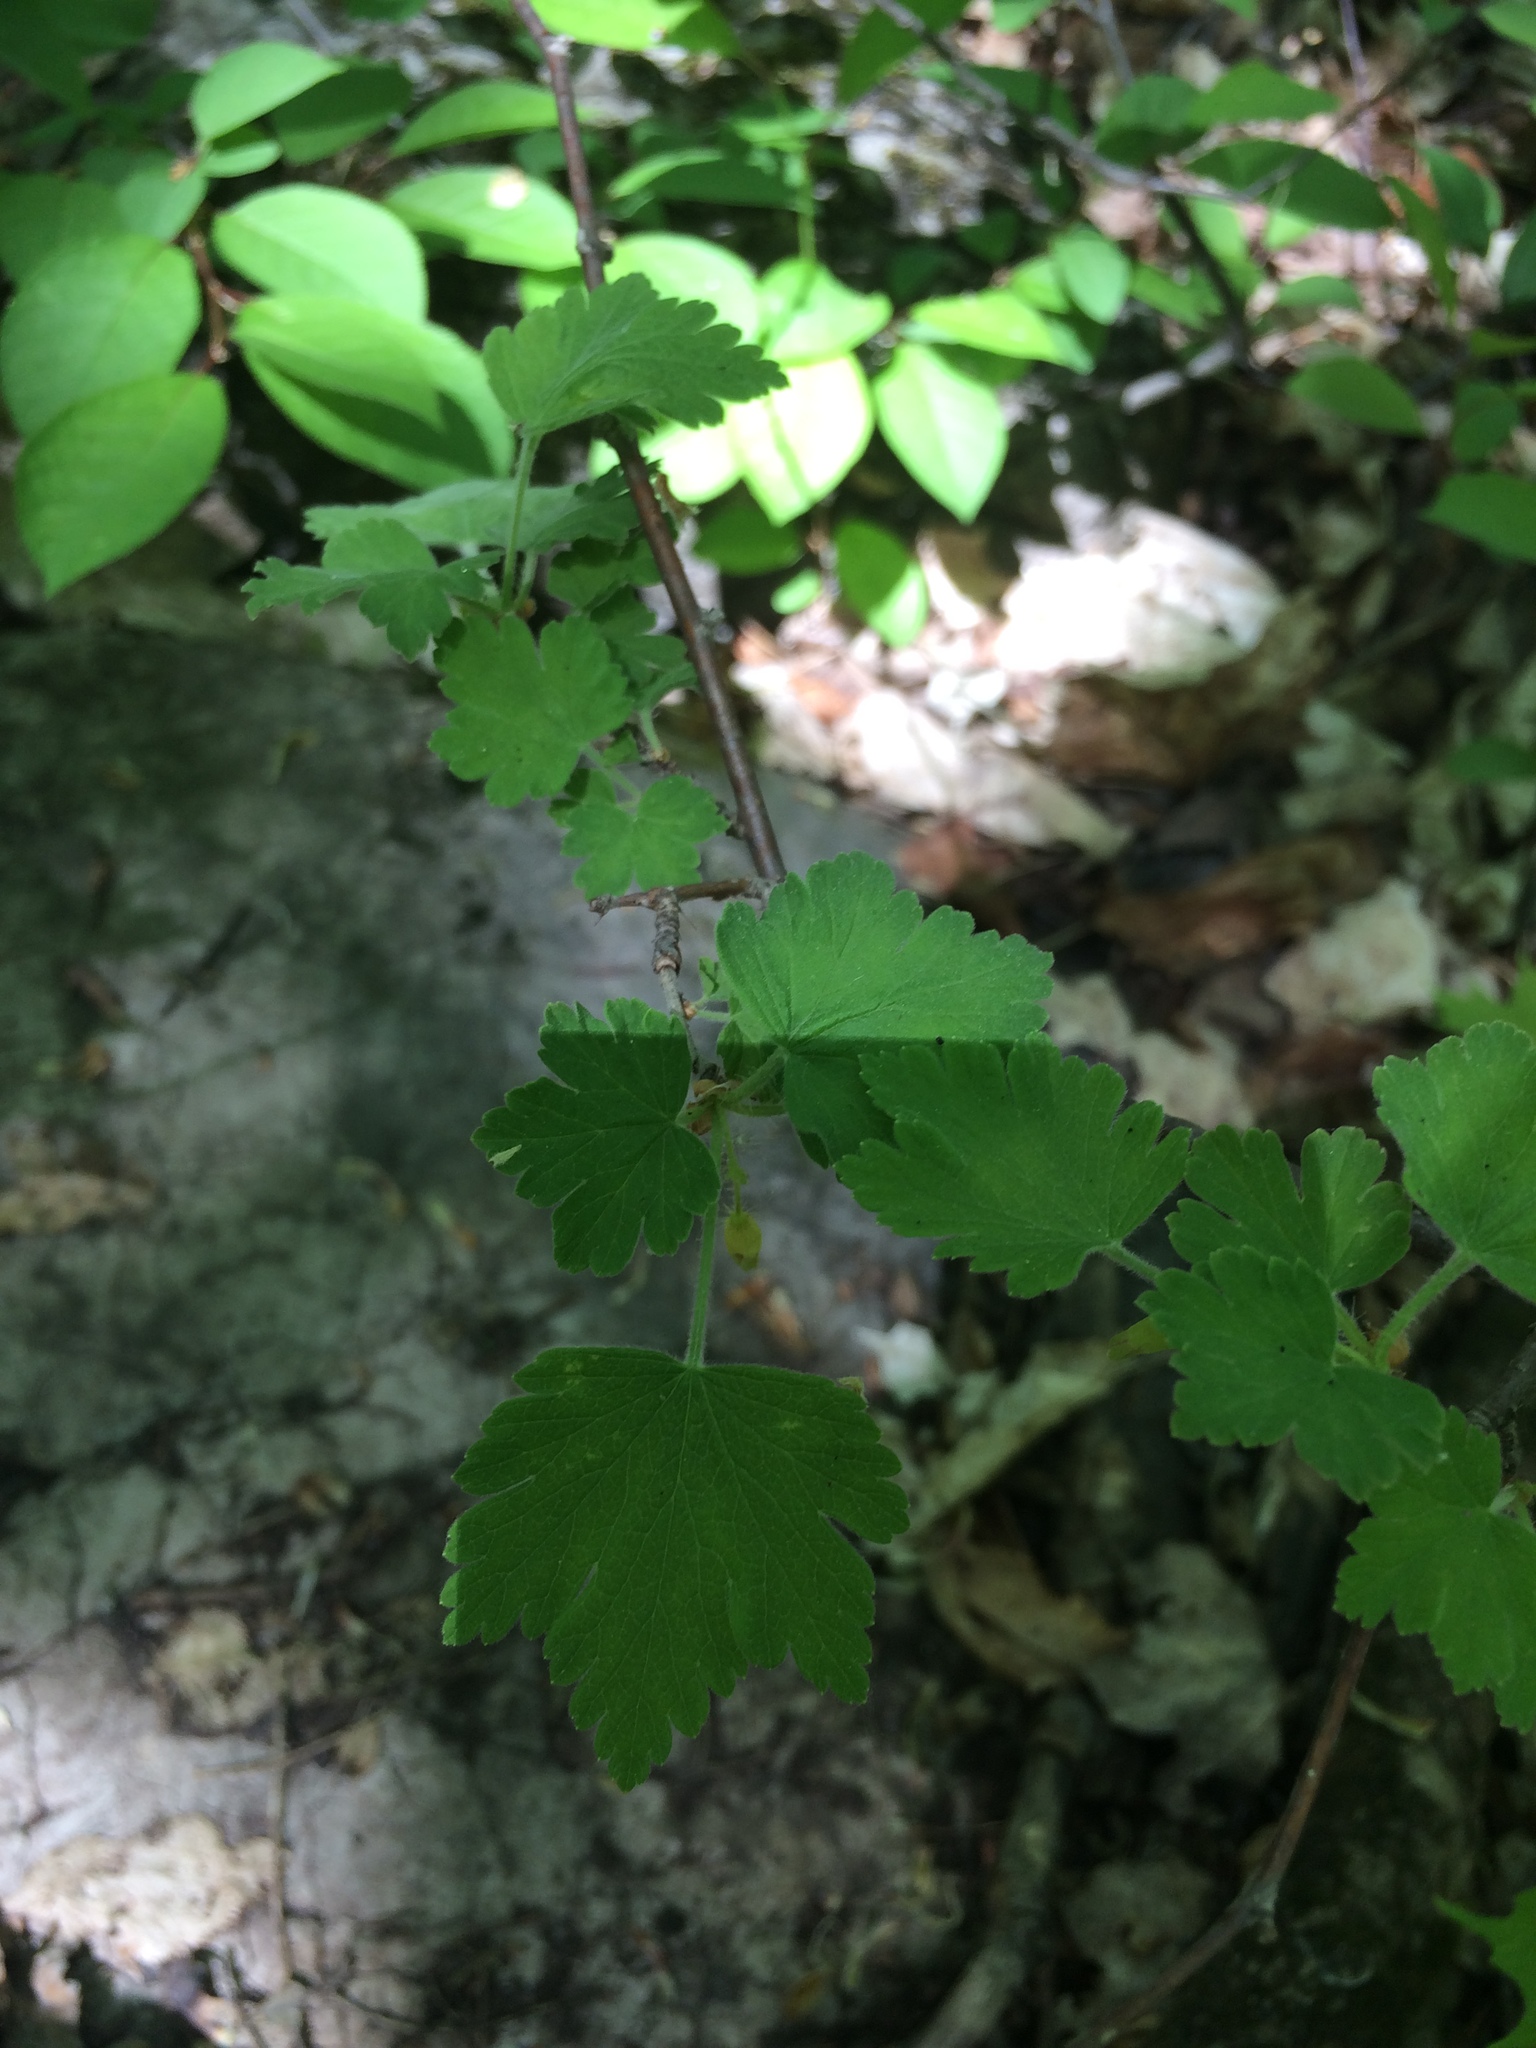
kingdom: Plantae
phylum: Tracheophyta
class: Magnoliopsida
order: Saxifragales
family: Grossulariaceae
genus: Ribes
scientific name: Ribes cynosbati
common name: American gooseberry
